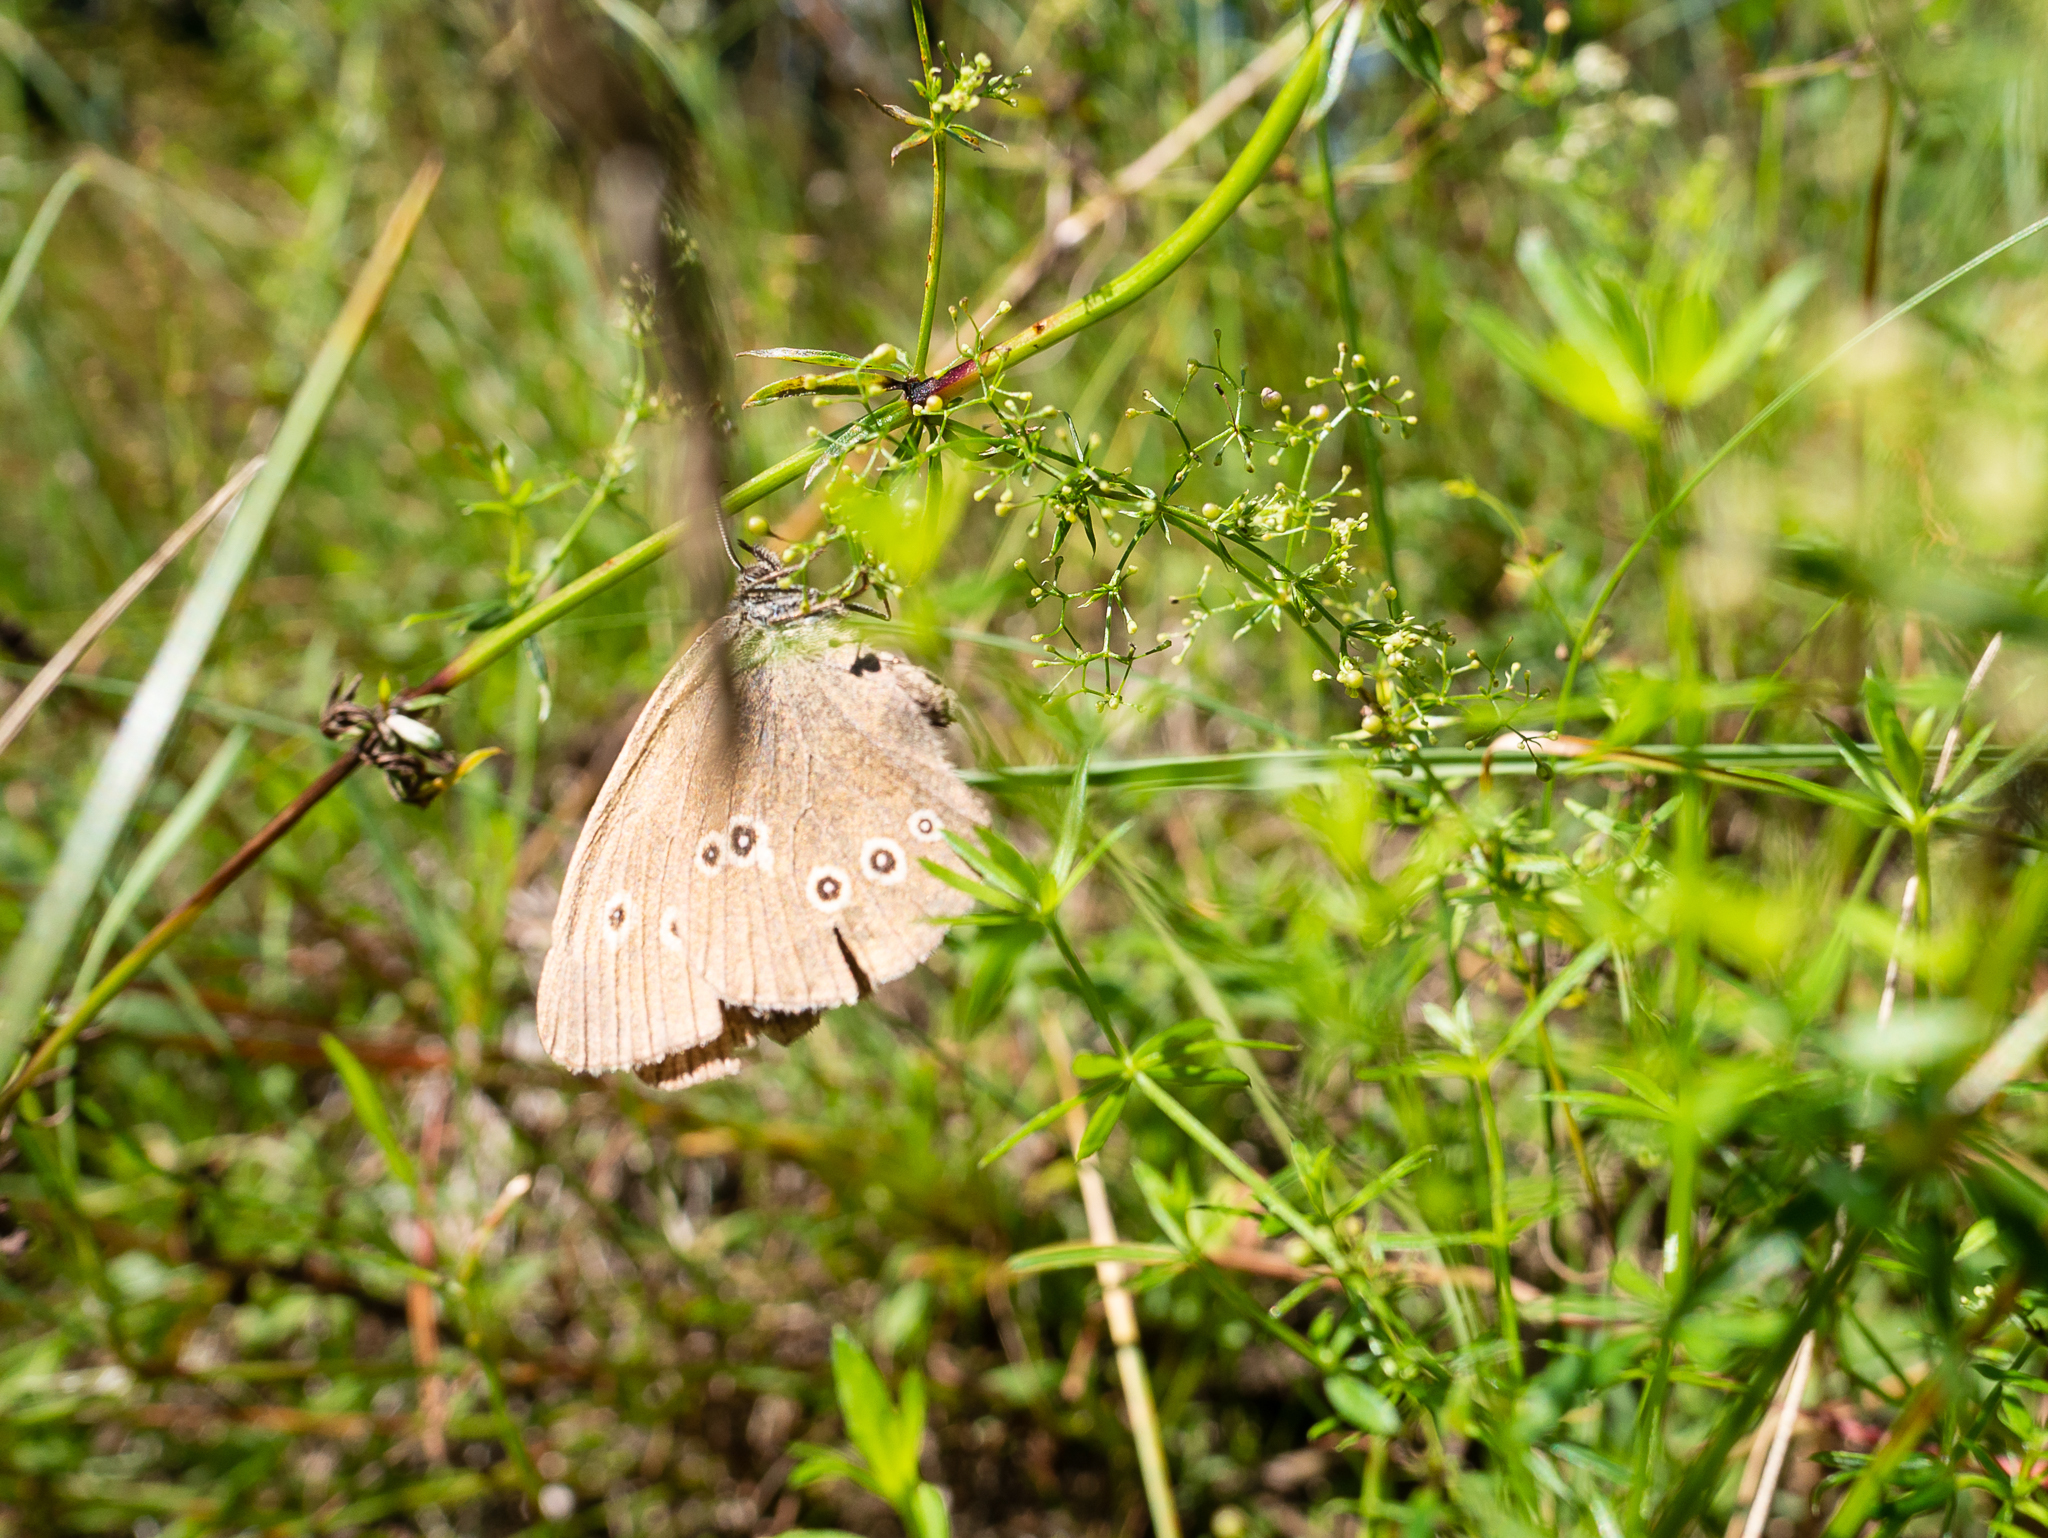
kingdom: Animalia
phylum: Arthropoda
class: Insecta
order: Lepidoptera
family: Nymphalidae
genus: Aphantopus
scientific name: Aphantopus hyperantus
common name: Ringlet
